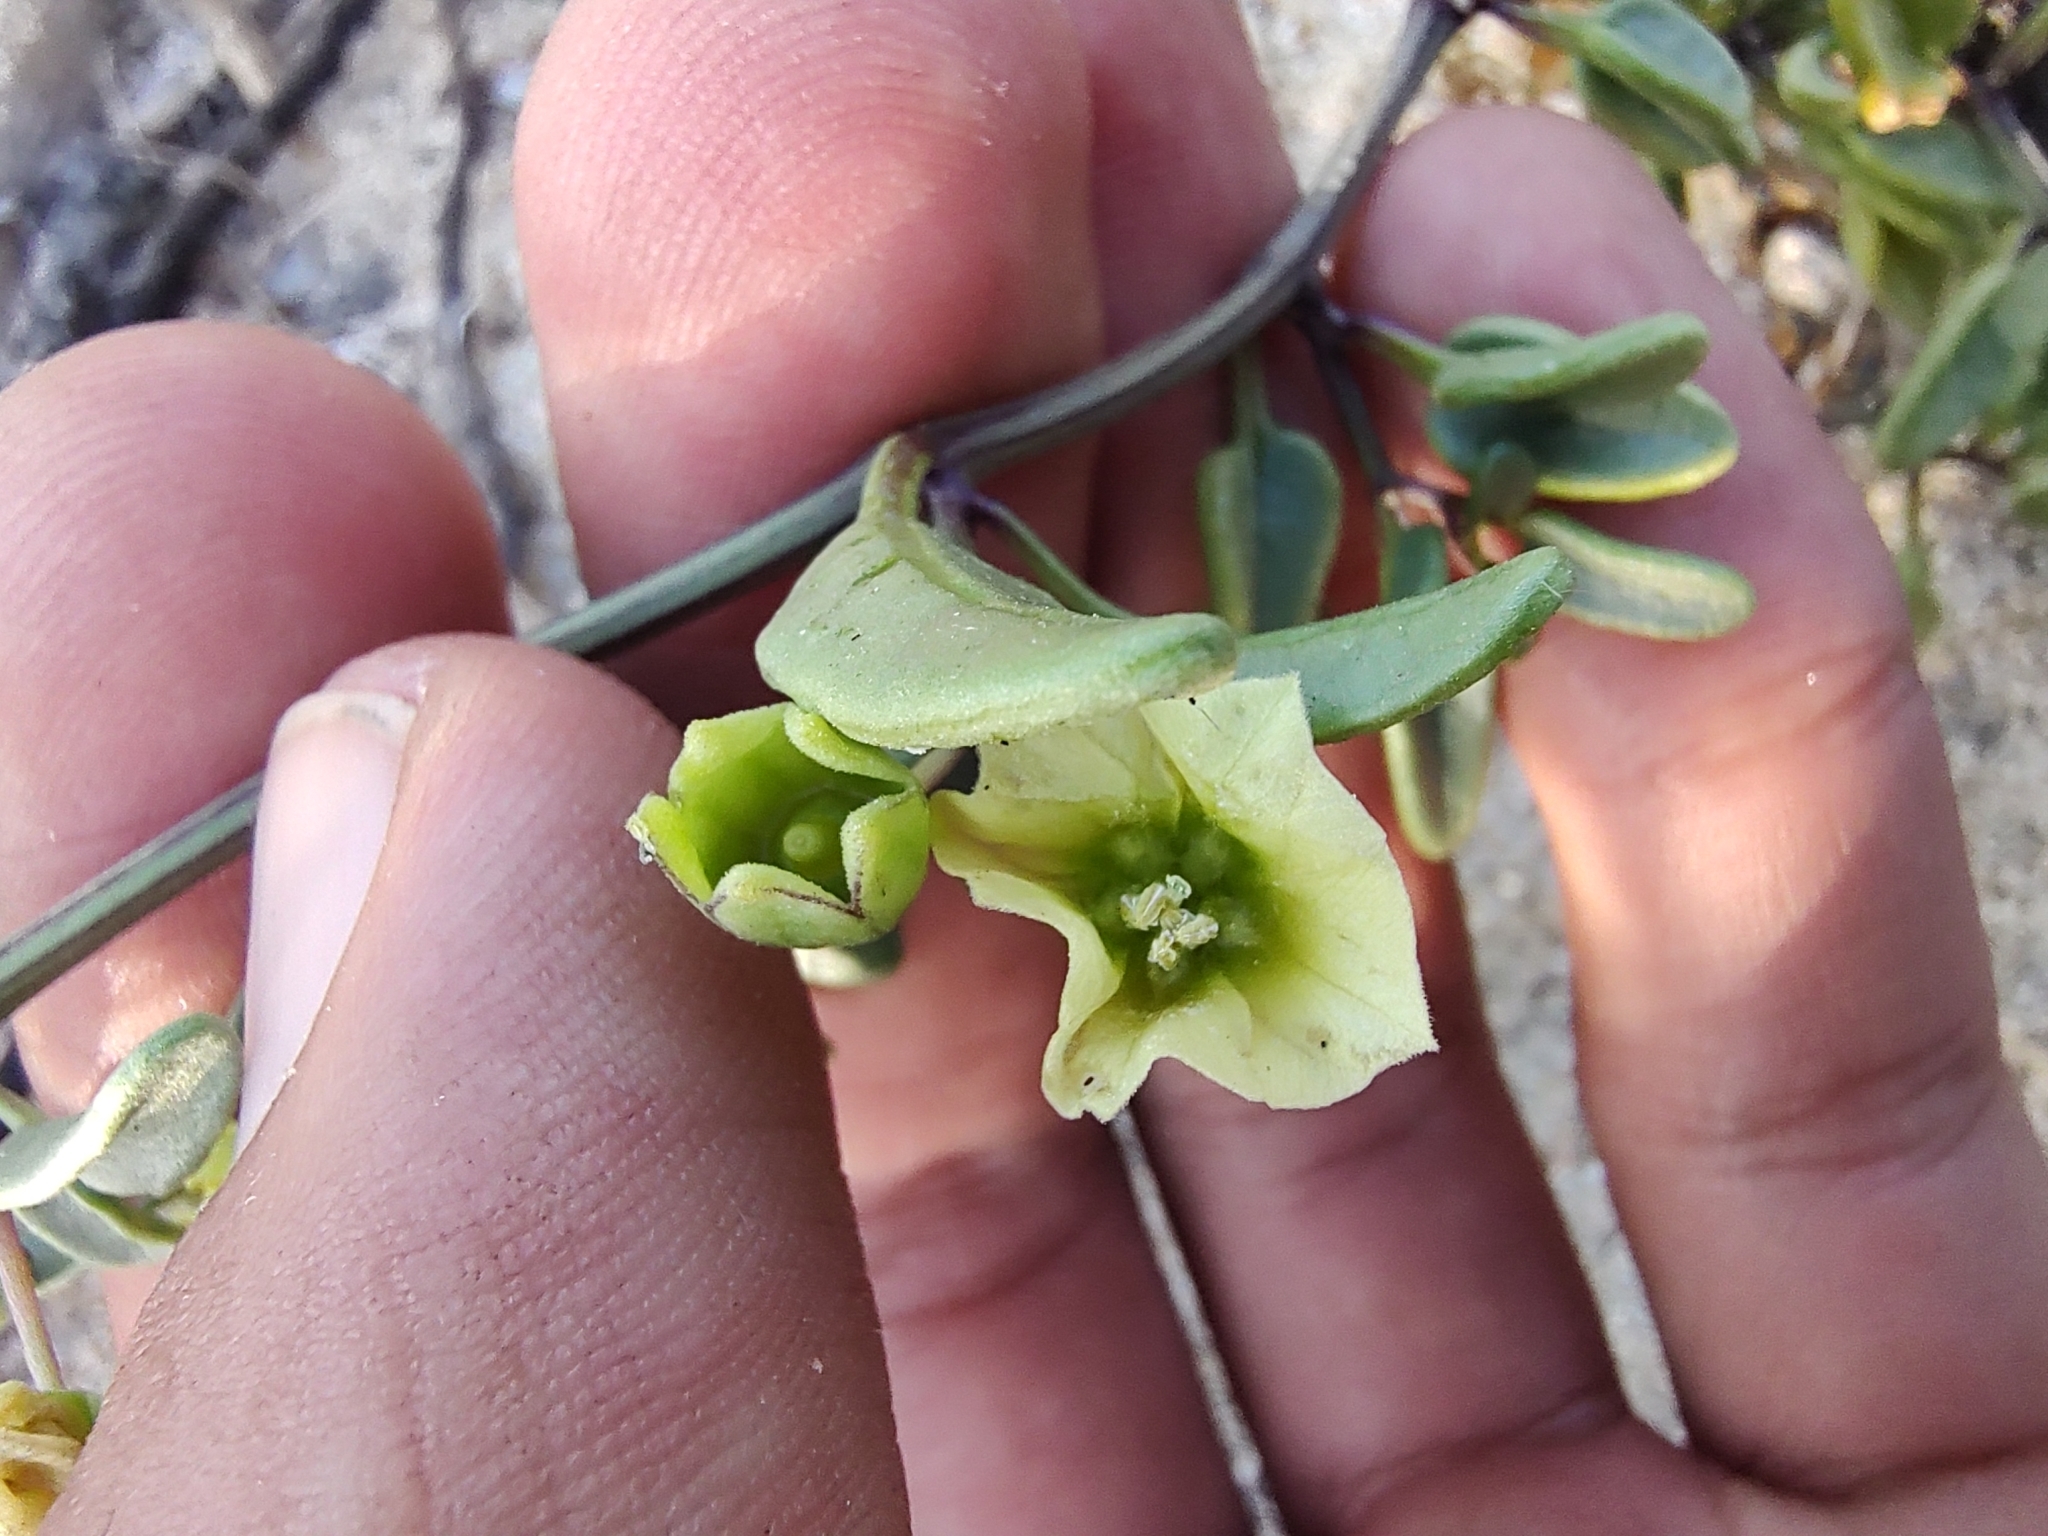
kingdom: Plantae
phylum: Tracheophyta
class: Magnoliopsida
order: Solanales
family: Solanaceae
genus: Physalis
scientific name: Physalis glabra
